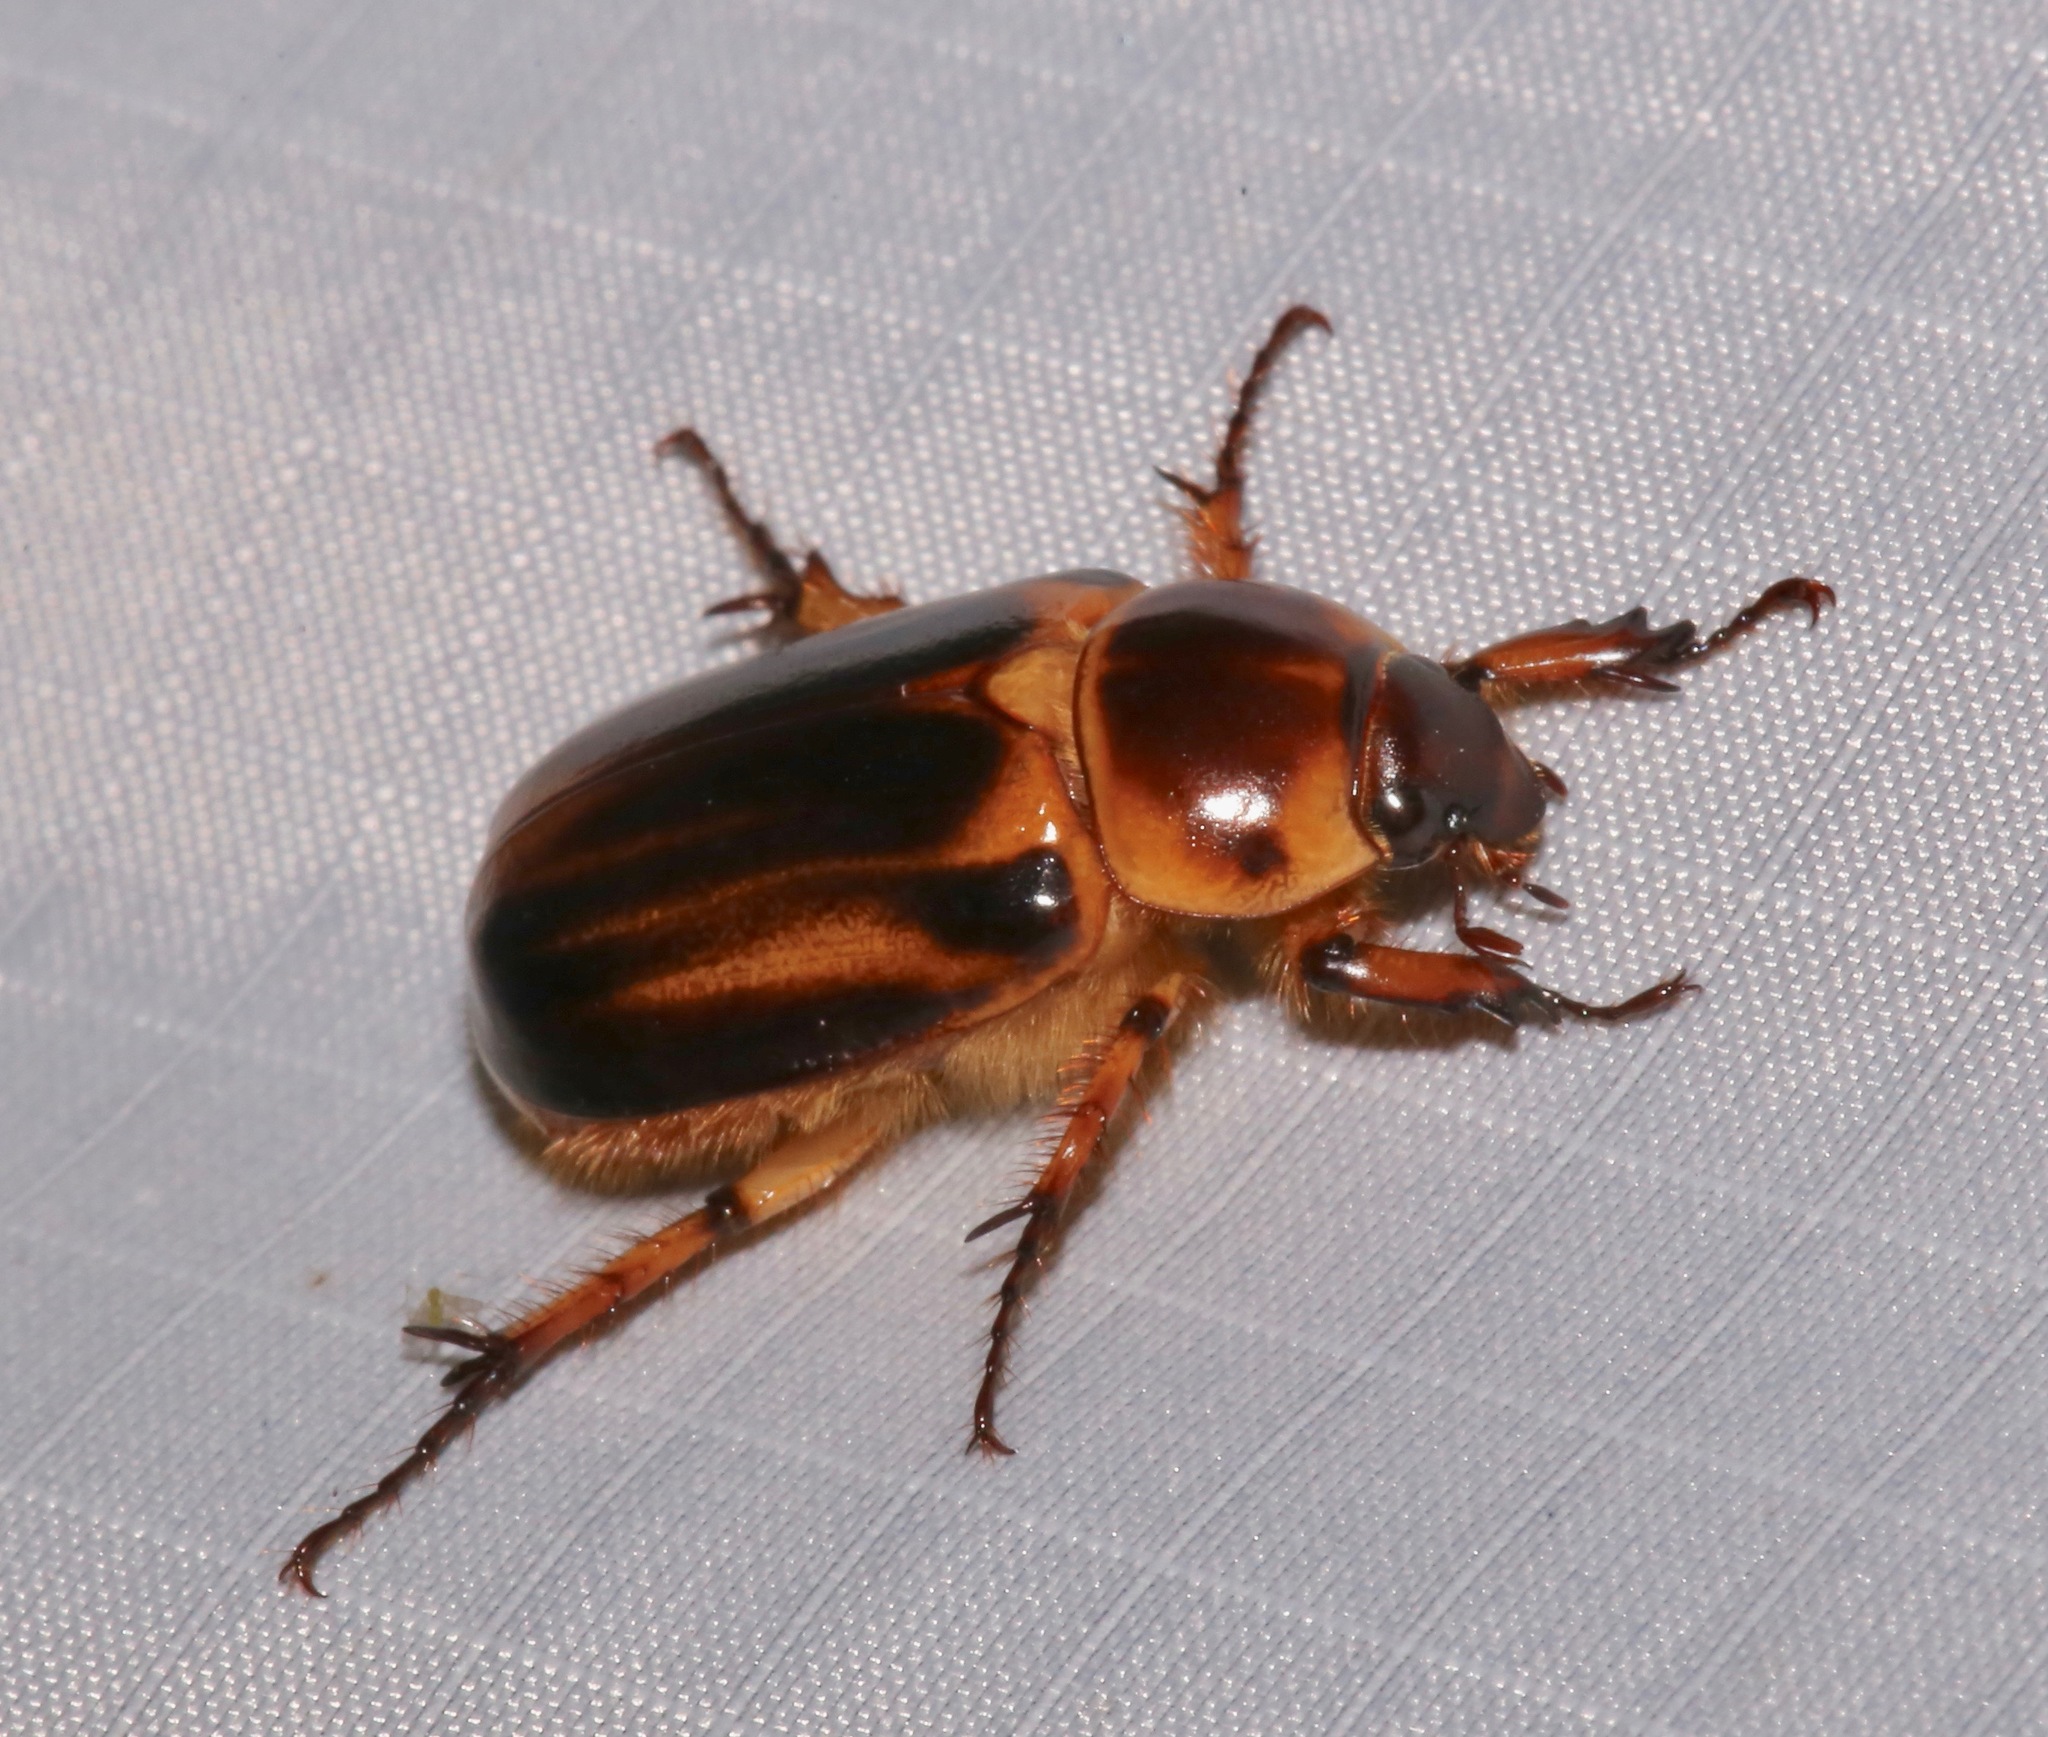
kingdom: Animalia
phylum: Arthropoda
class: Insecta
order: Coleoptera
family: Scarabaeidae
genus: Ancognatha
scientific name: Ancognatha manca
